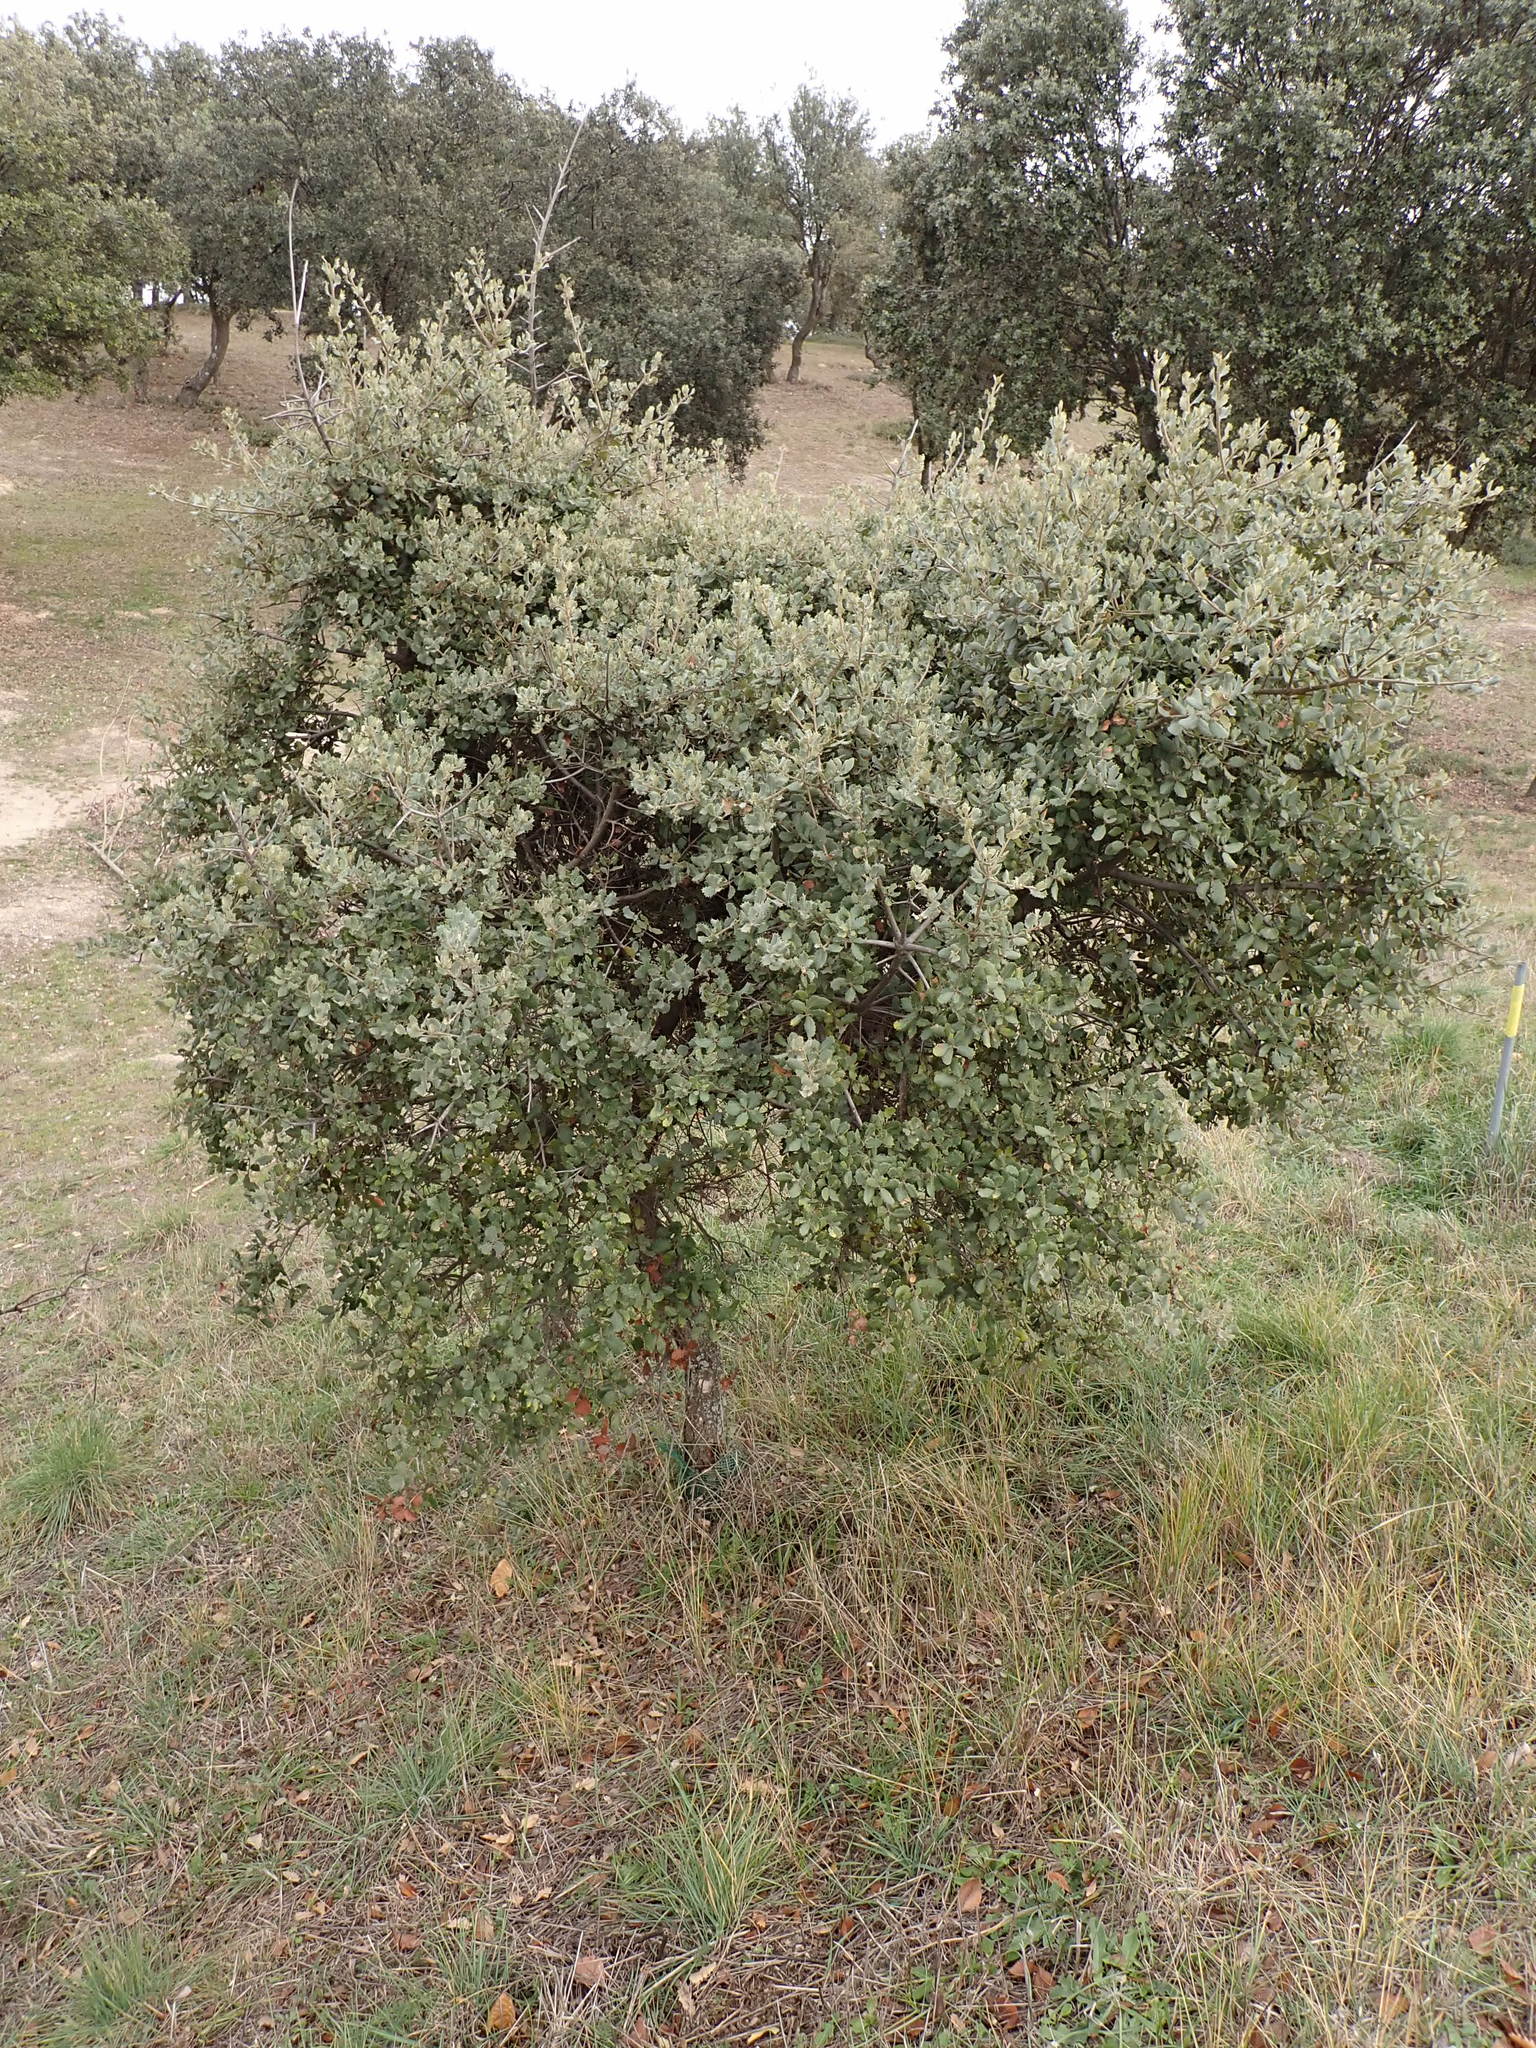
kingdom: Plantae
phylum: Tracheophyta
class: Magnoliopsida
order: Fagales
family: Fagaceae
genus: Quercus
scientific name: Quercus rotundifolia
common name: Holm oak
